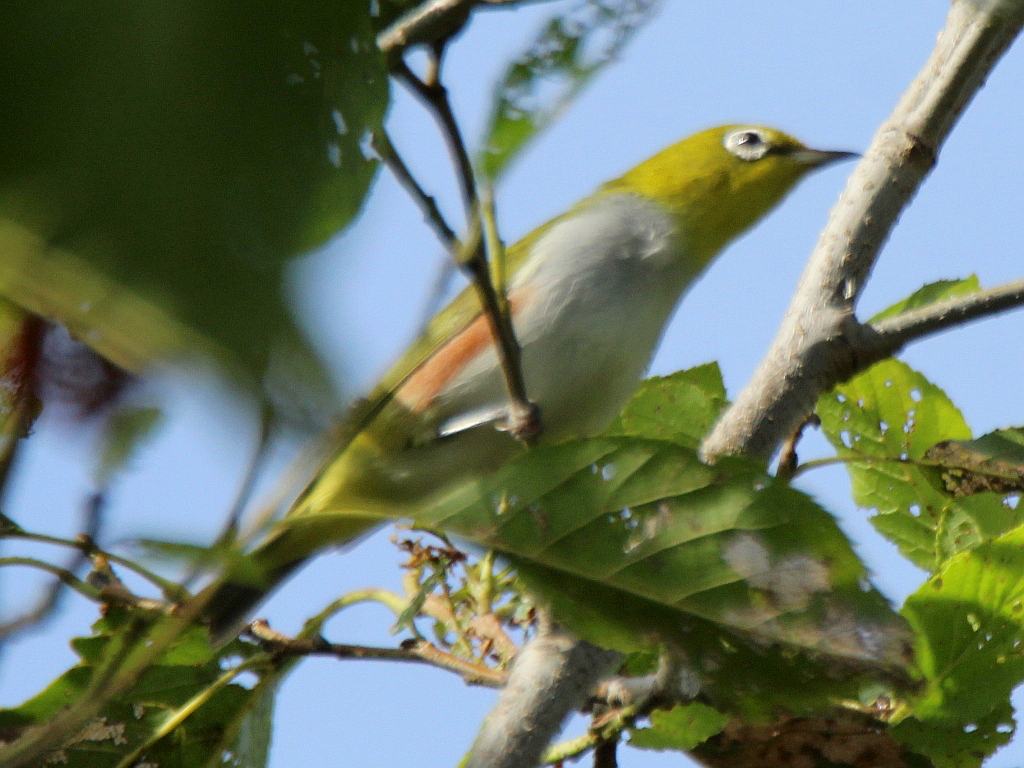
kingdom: Animalia
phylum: Chordata
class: Aves
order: Passeriformes
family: Zosteropidae
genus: Zosterops
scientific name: Zosterops erythropleurus
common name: Chestnut-flanked white-eye
